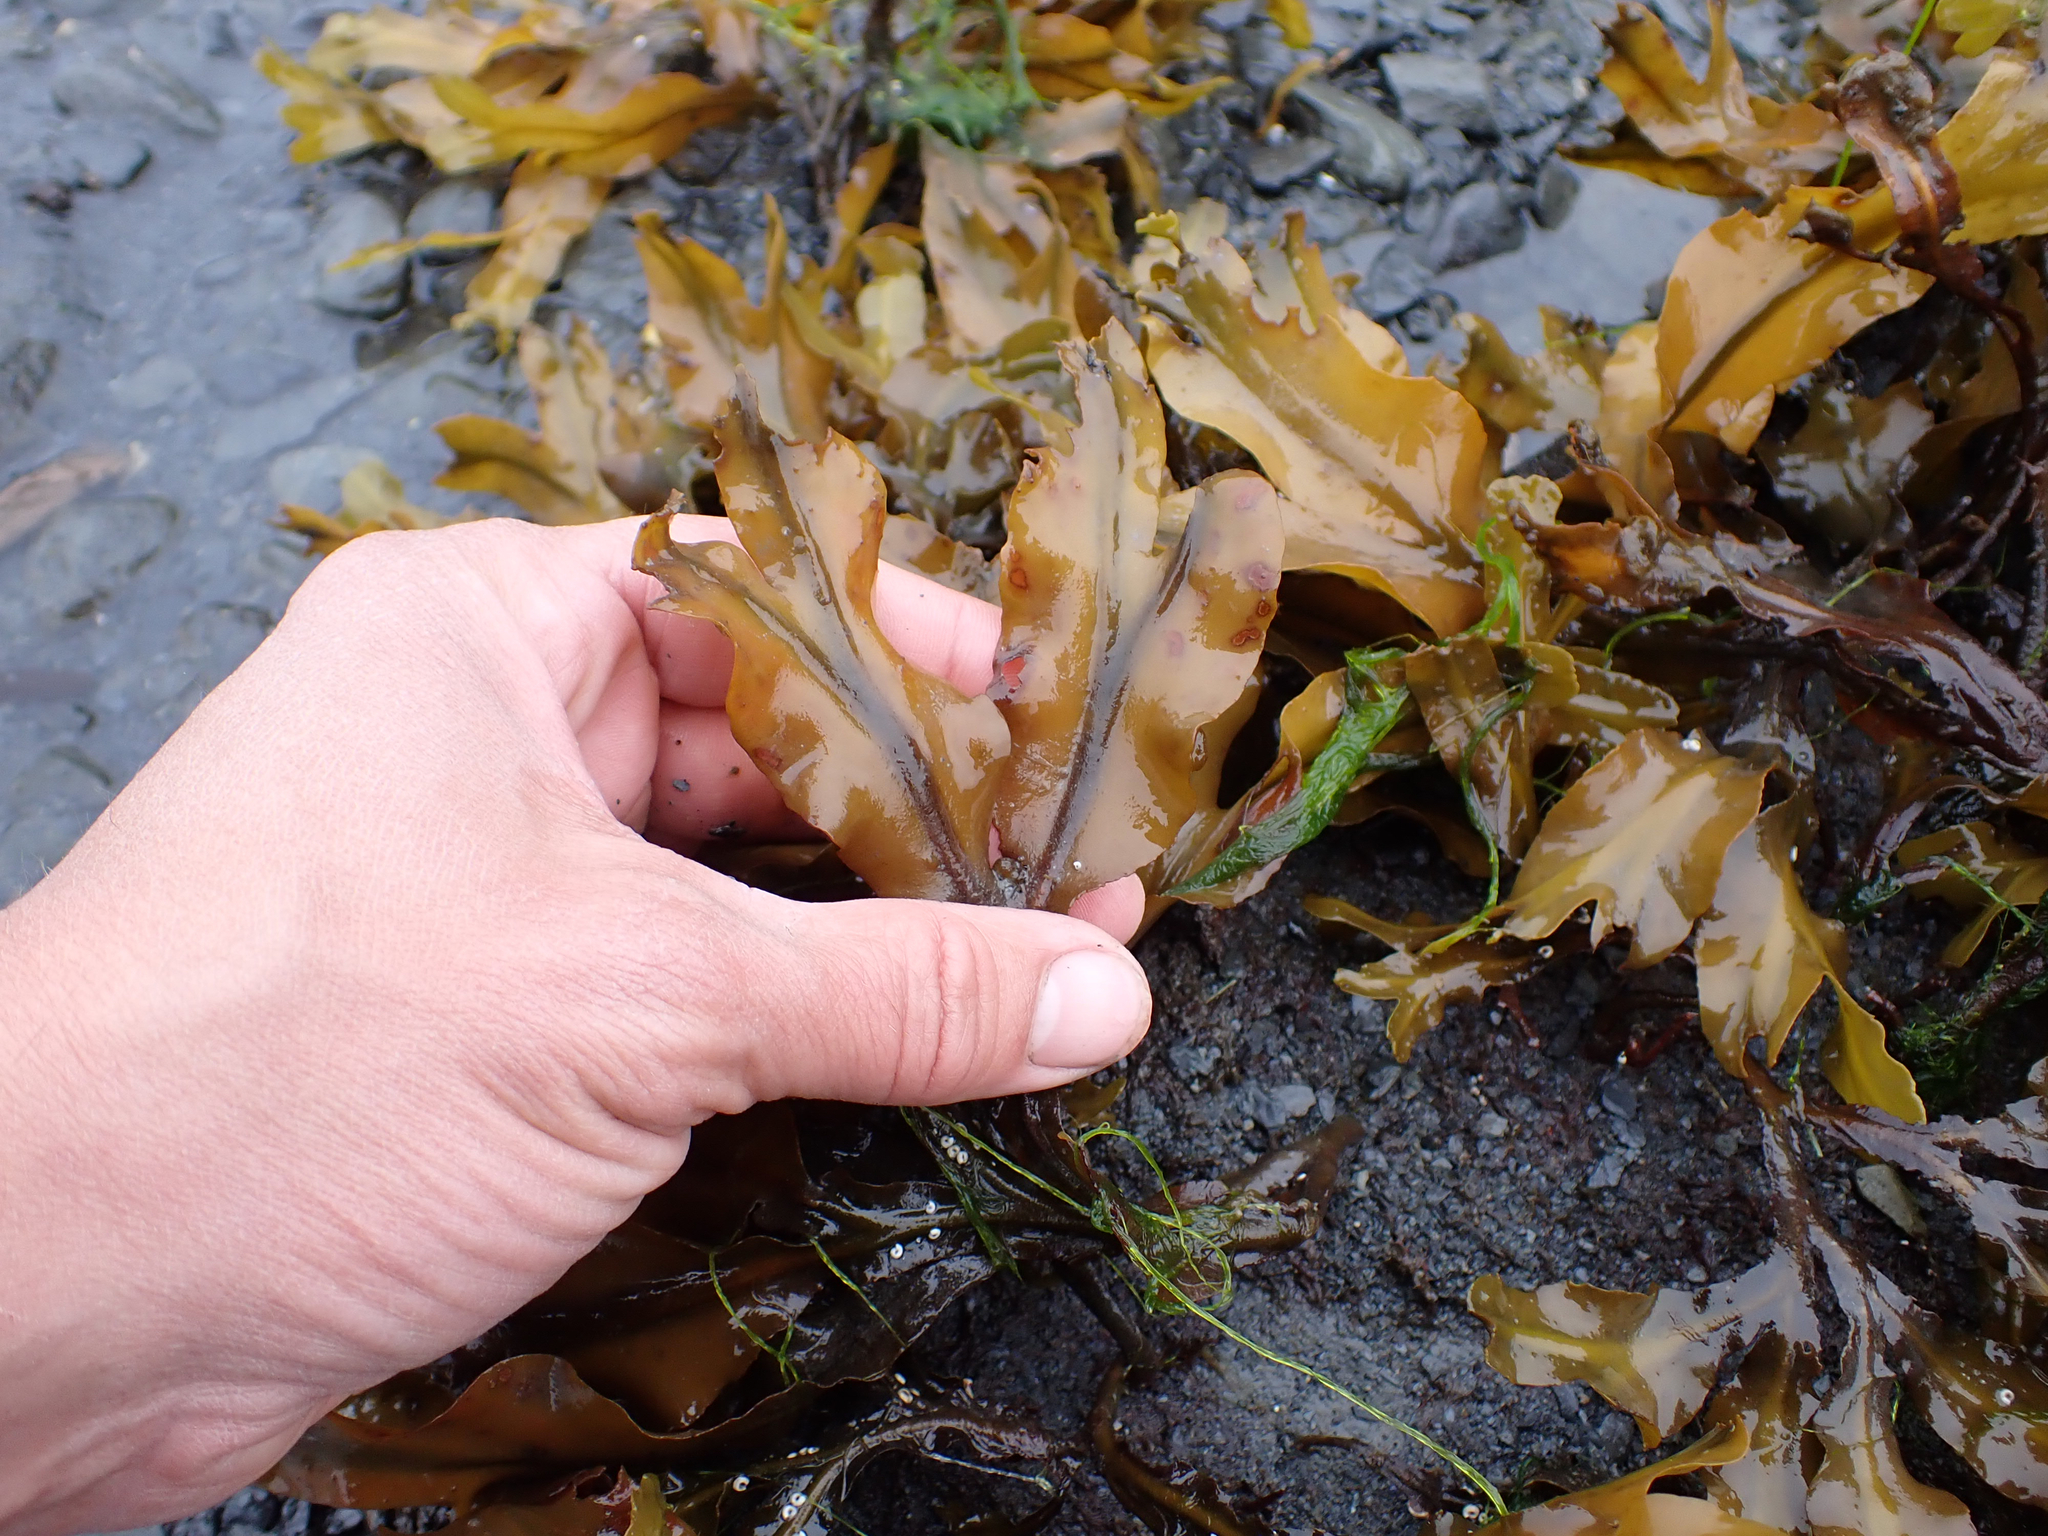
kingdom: Chromista
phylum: Ochrophyta
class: Phaeophyceae
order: Fucales
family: Fucaceae
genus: Fucus
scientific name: Fucus distichus
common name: Rockweed
